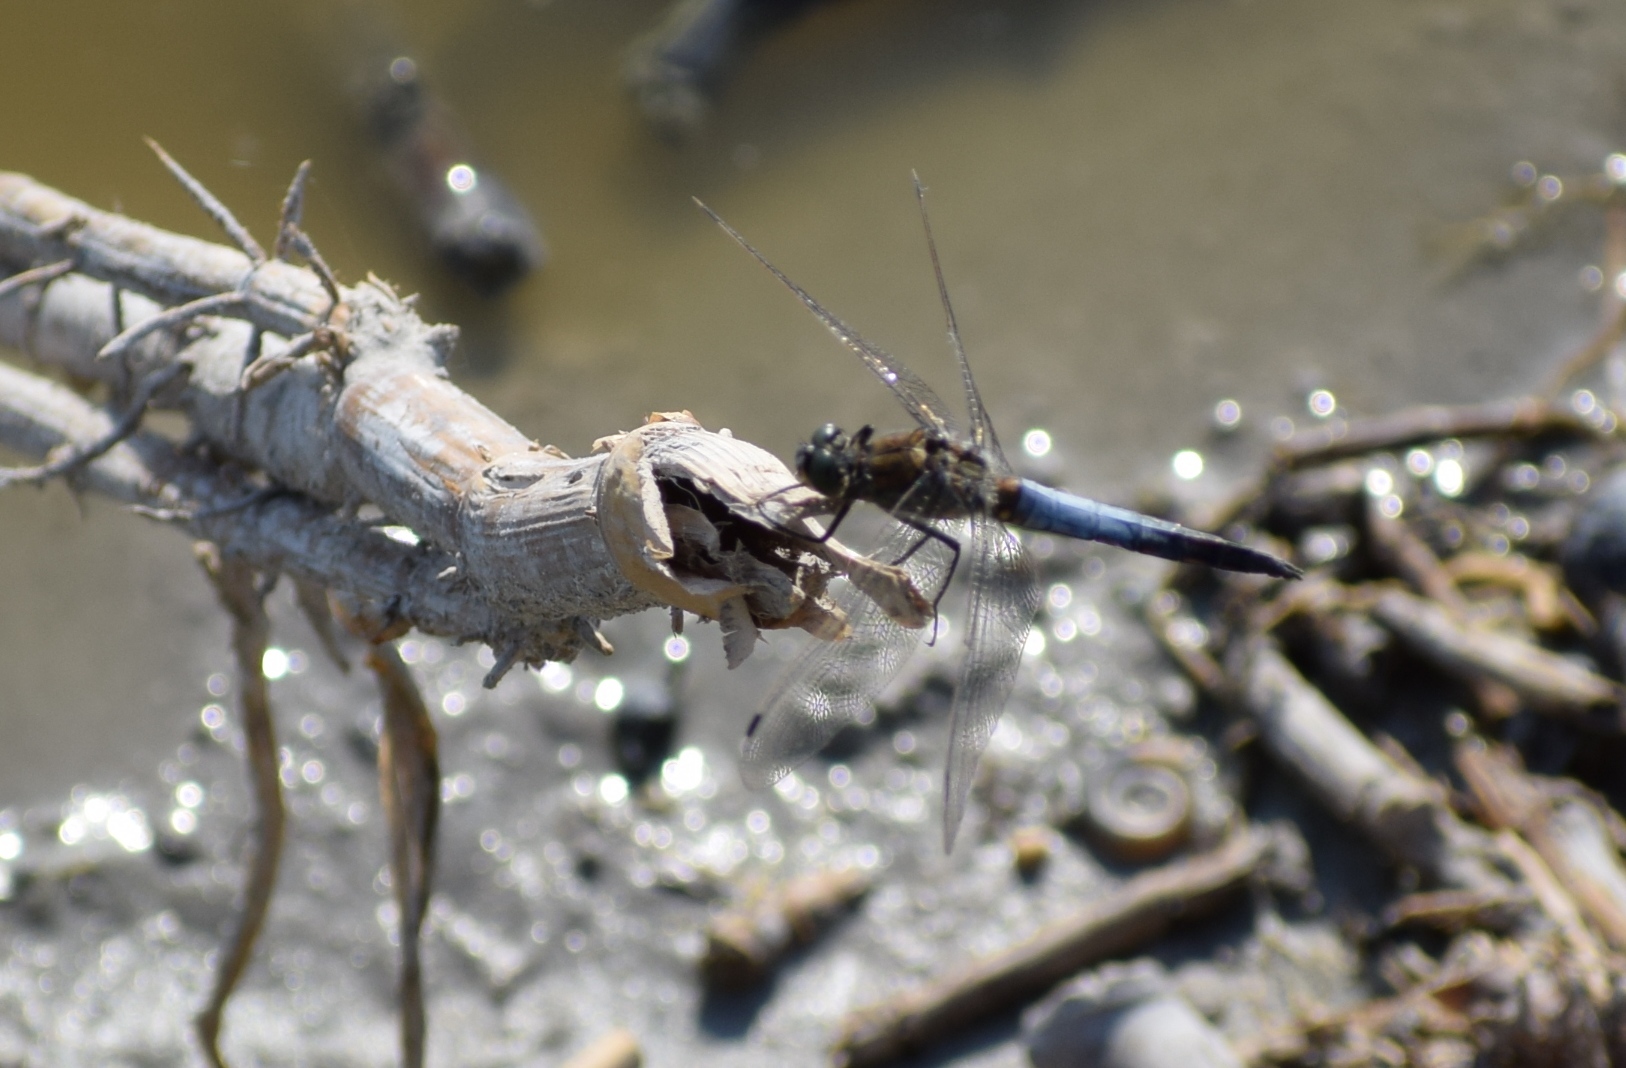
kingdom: Animalia
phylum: Arthropoda
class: Insecta
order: Odonata
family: Libellulidae
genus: Orthetrum
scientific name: Orthetrum cancellatum
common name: Black-tailed skimmer
